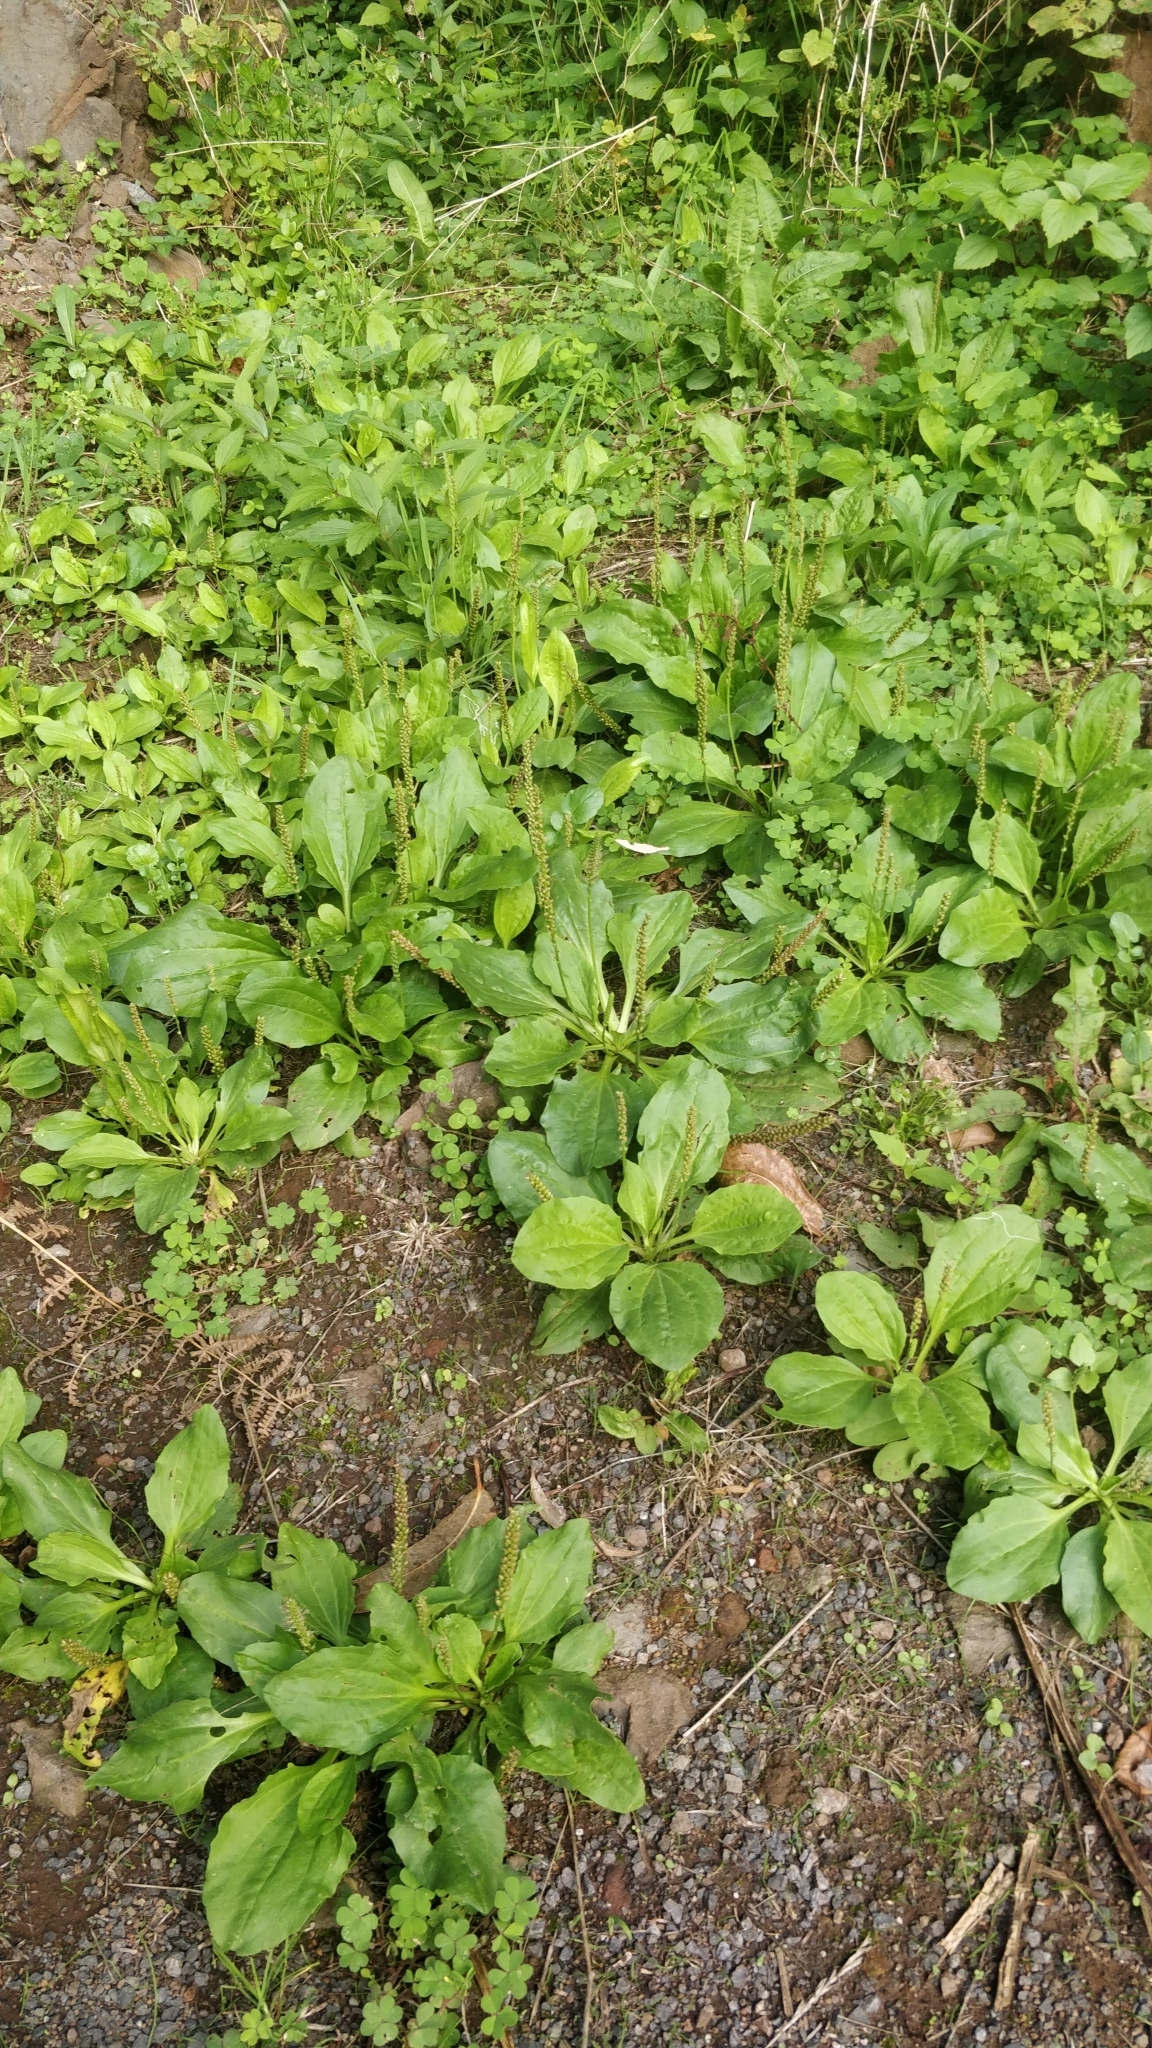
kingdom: Plantae
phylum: Tracheophyta
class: Magnoliopsida
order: Lamiales
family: Plantaginaceae
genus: Plantago
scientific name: Plantago major
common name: Common plantain
